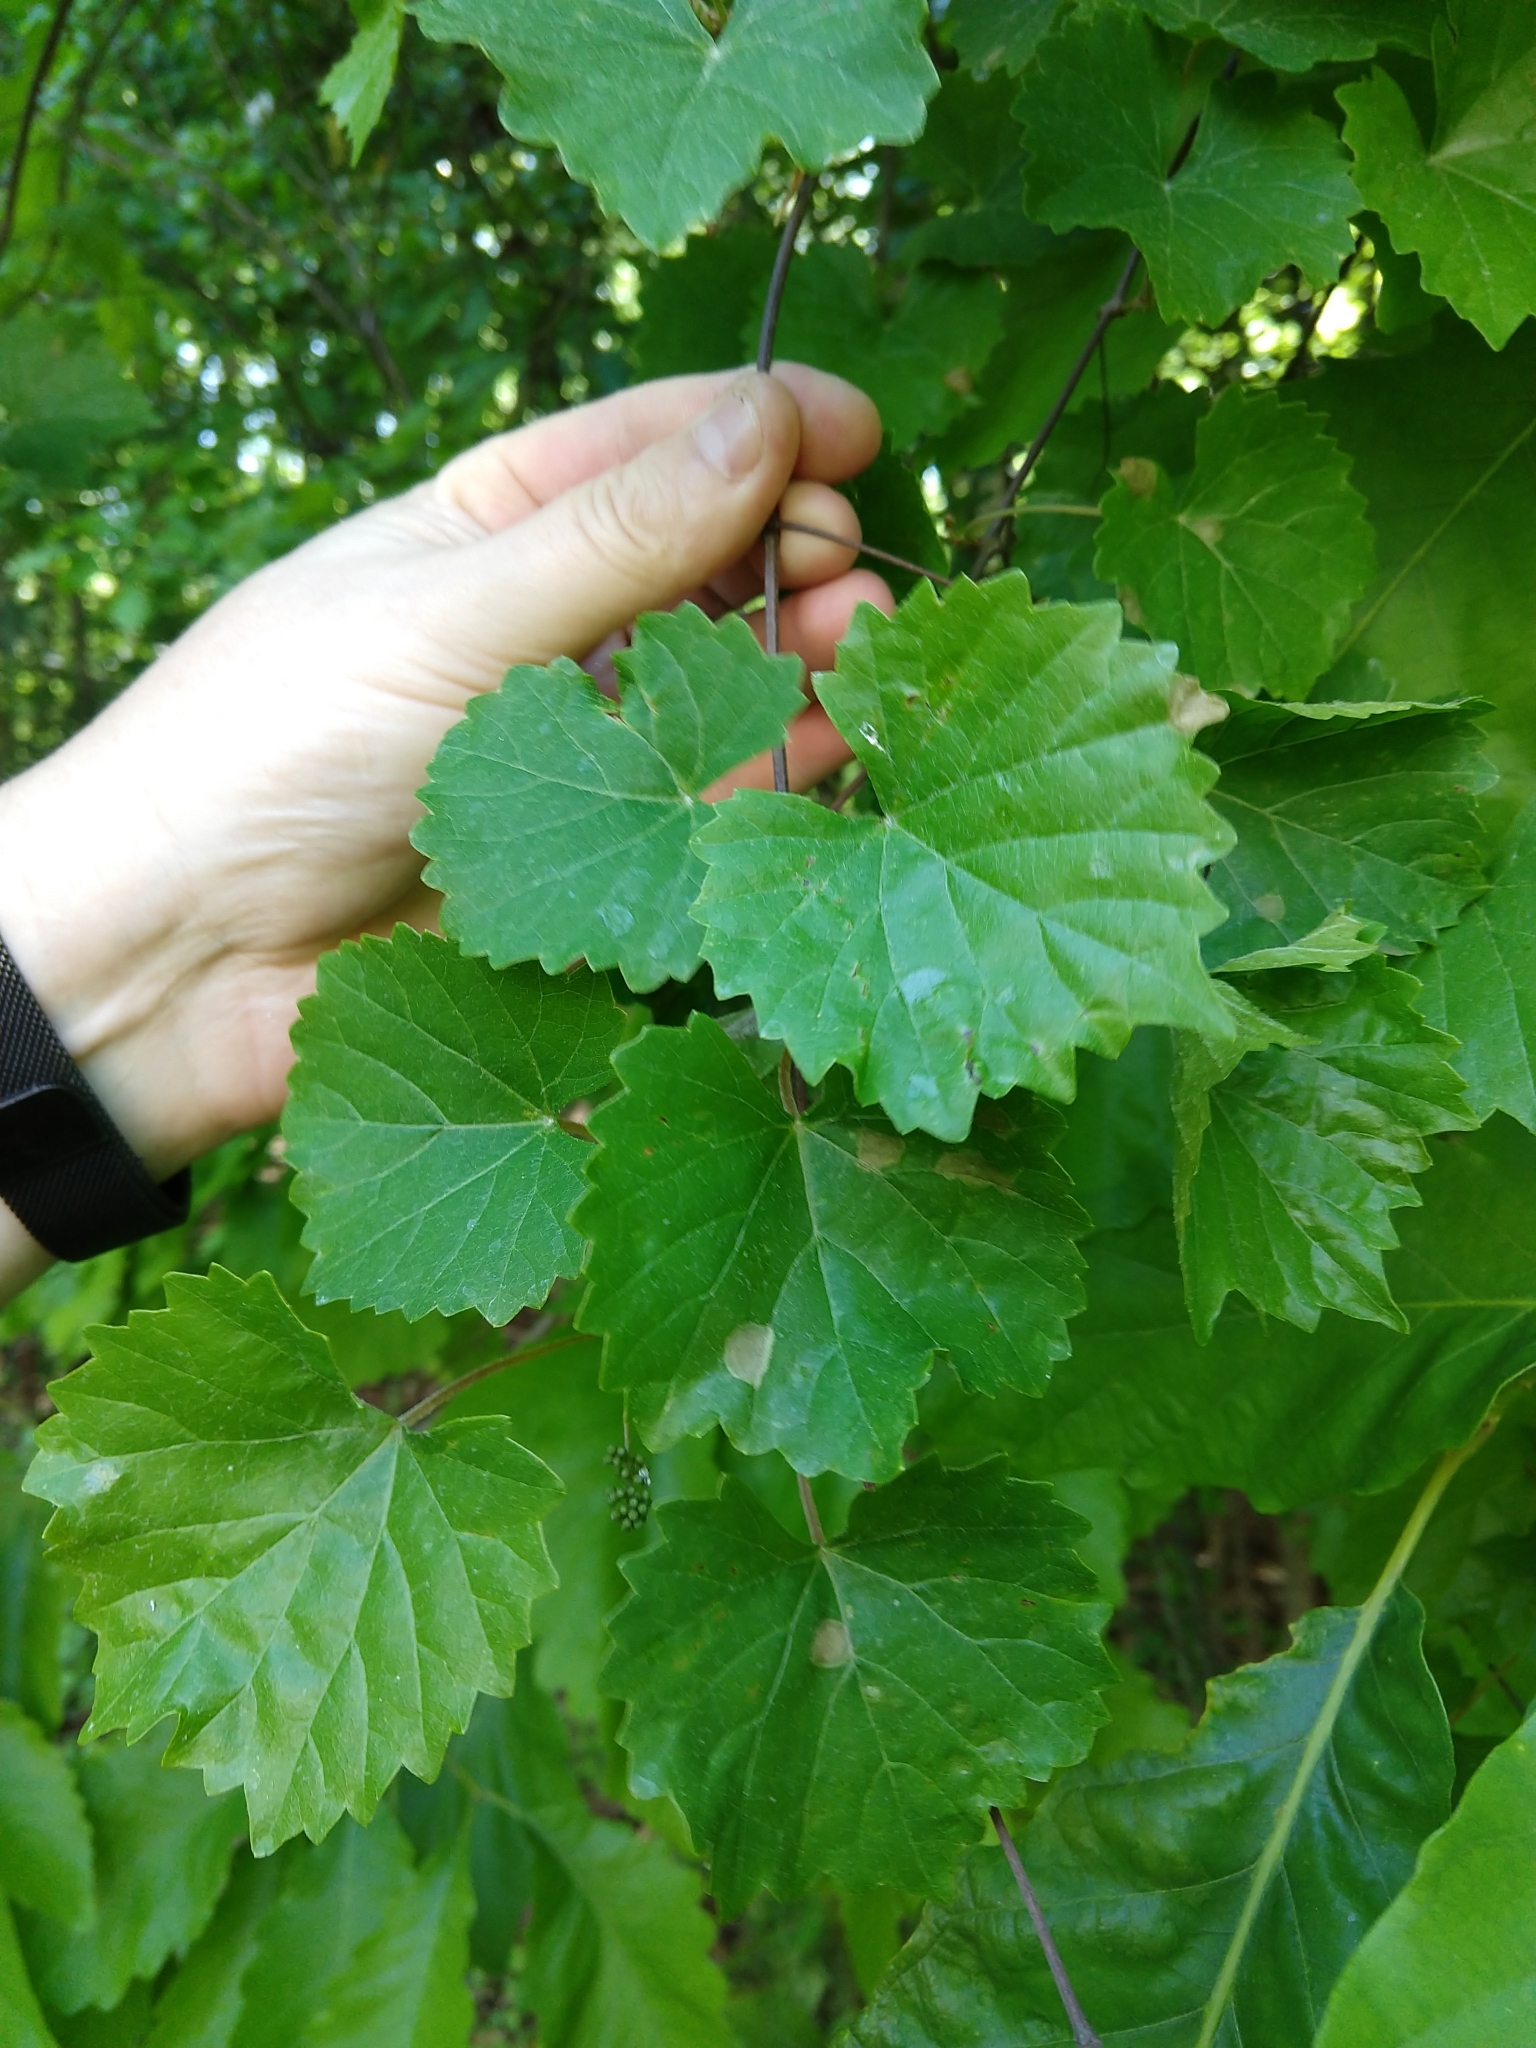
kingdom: Plantae
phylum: Tracheophyta
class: Magnoliopsida
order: Vitales
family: Vitaceae
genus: Vitis
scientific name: Vitis rotundifolia
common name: Muscadine grape
